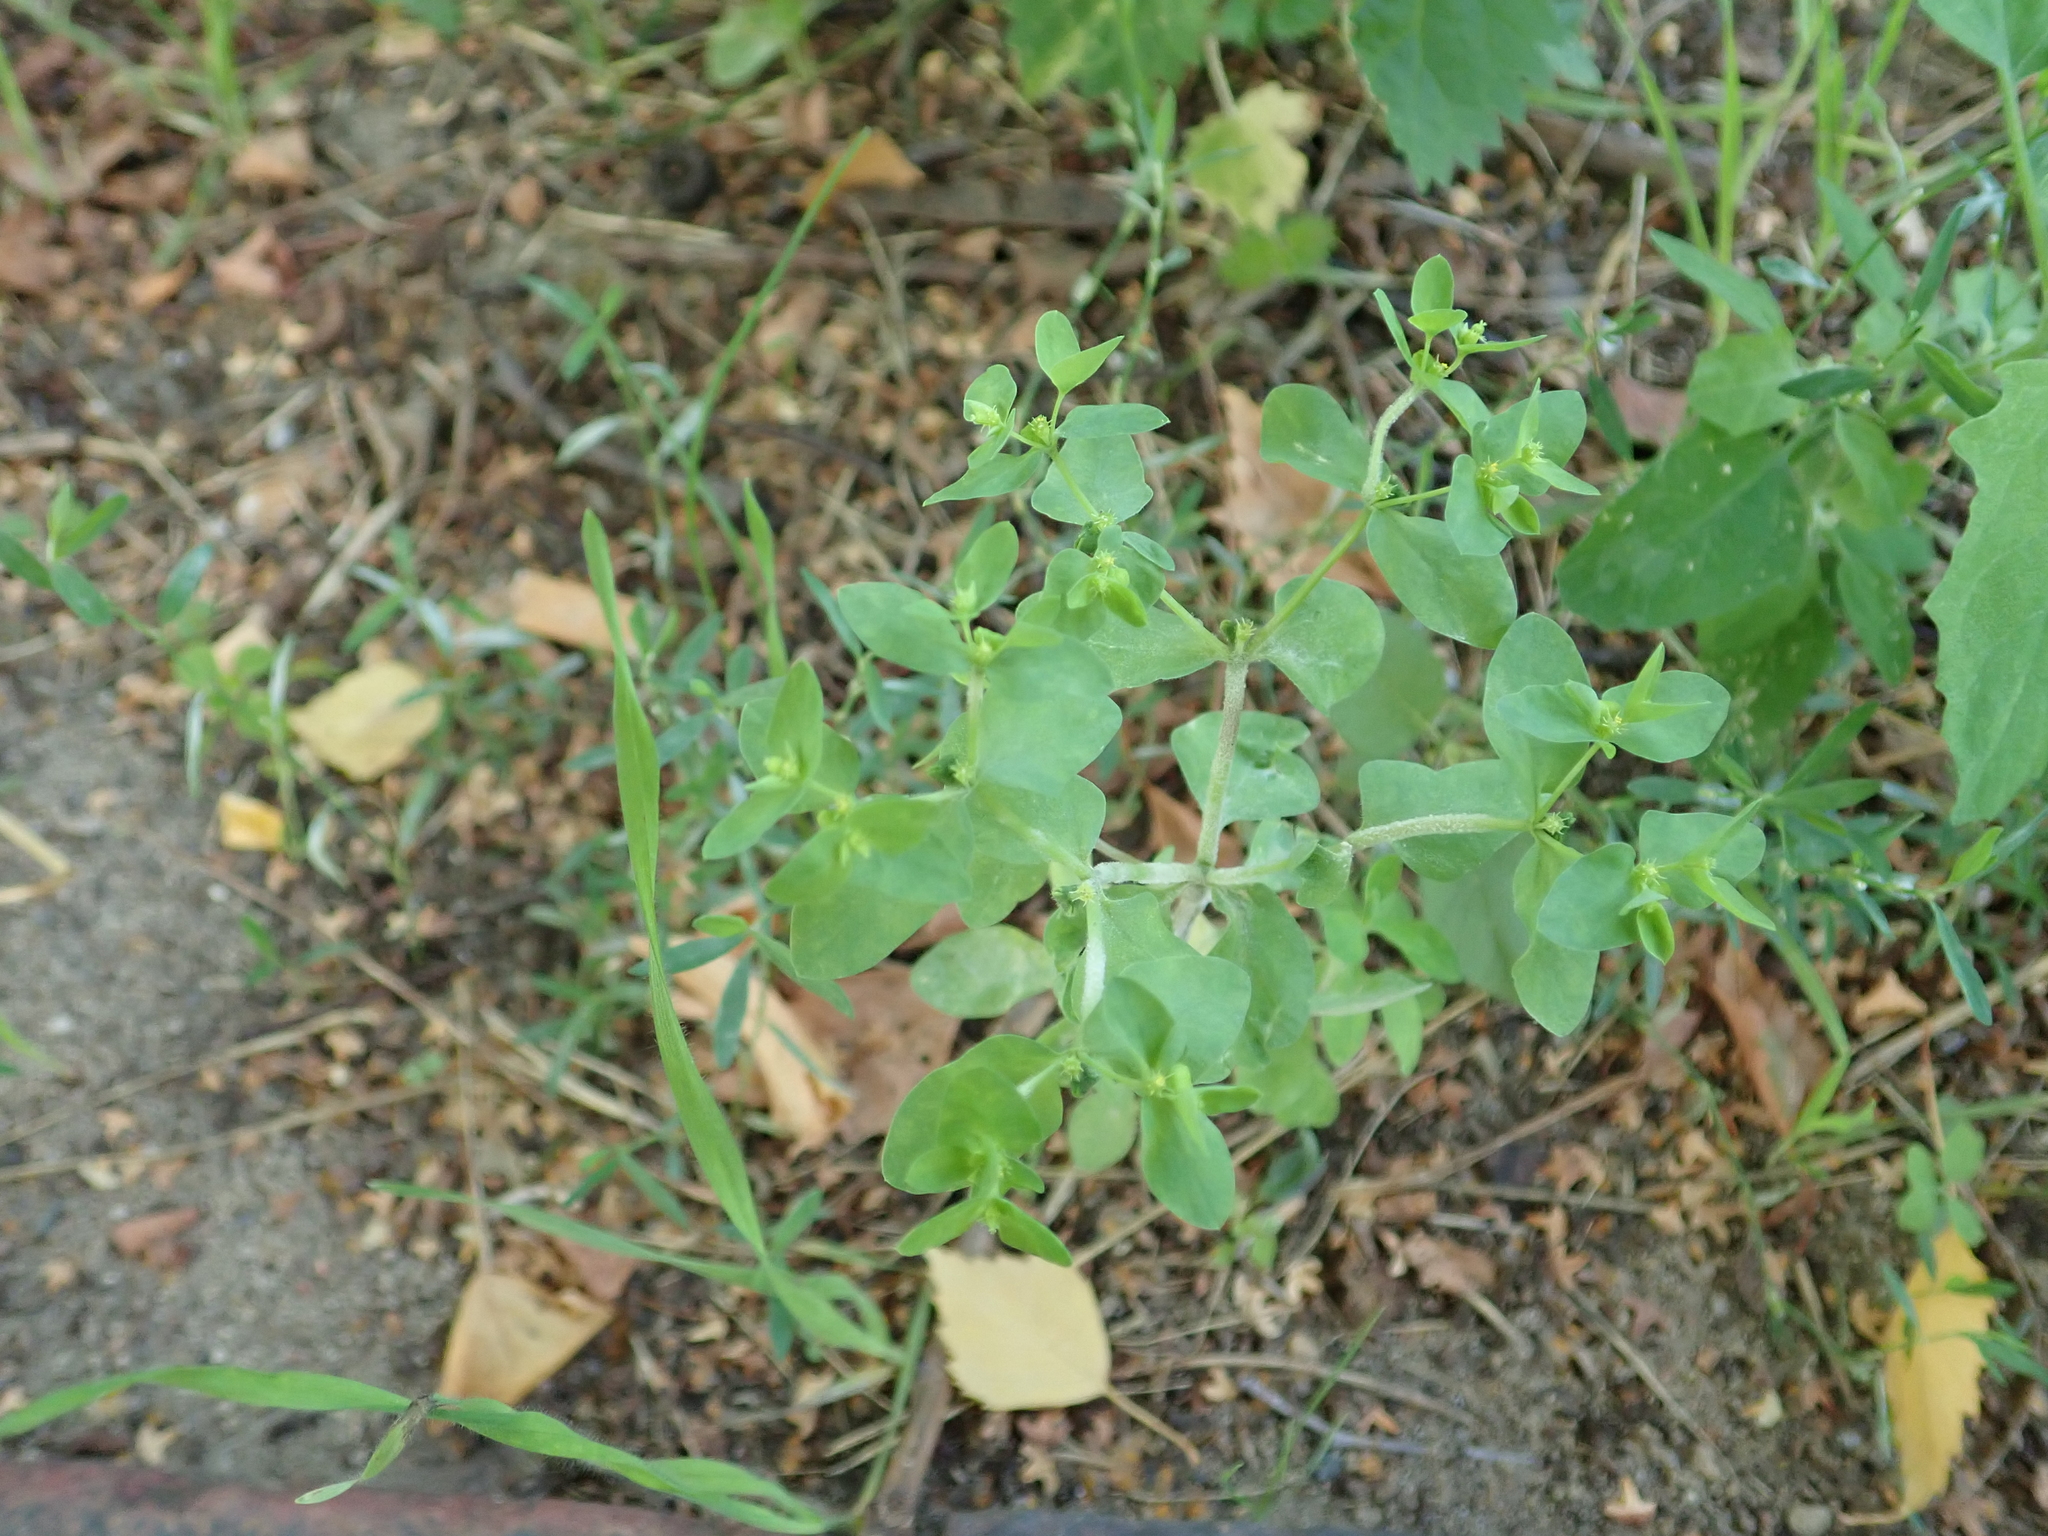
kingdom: Plantae
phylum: Tracheophyta
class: Magnoliopsida
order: Malpighiales
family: Euphorbiaceae
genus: Euphorbia
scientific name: Euphorbia peplus
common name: Petty spurge
